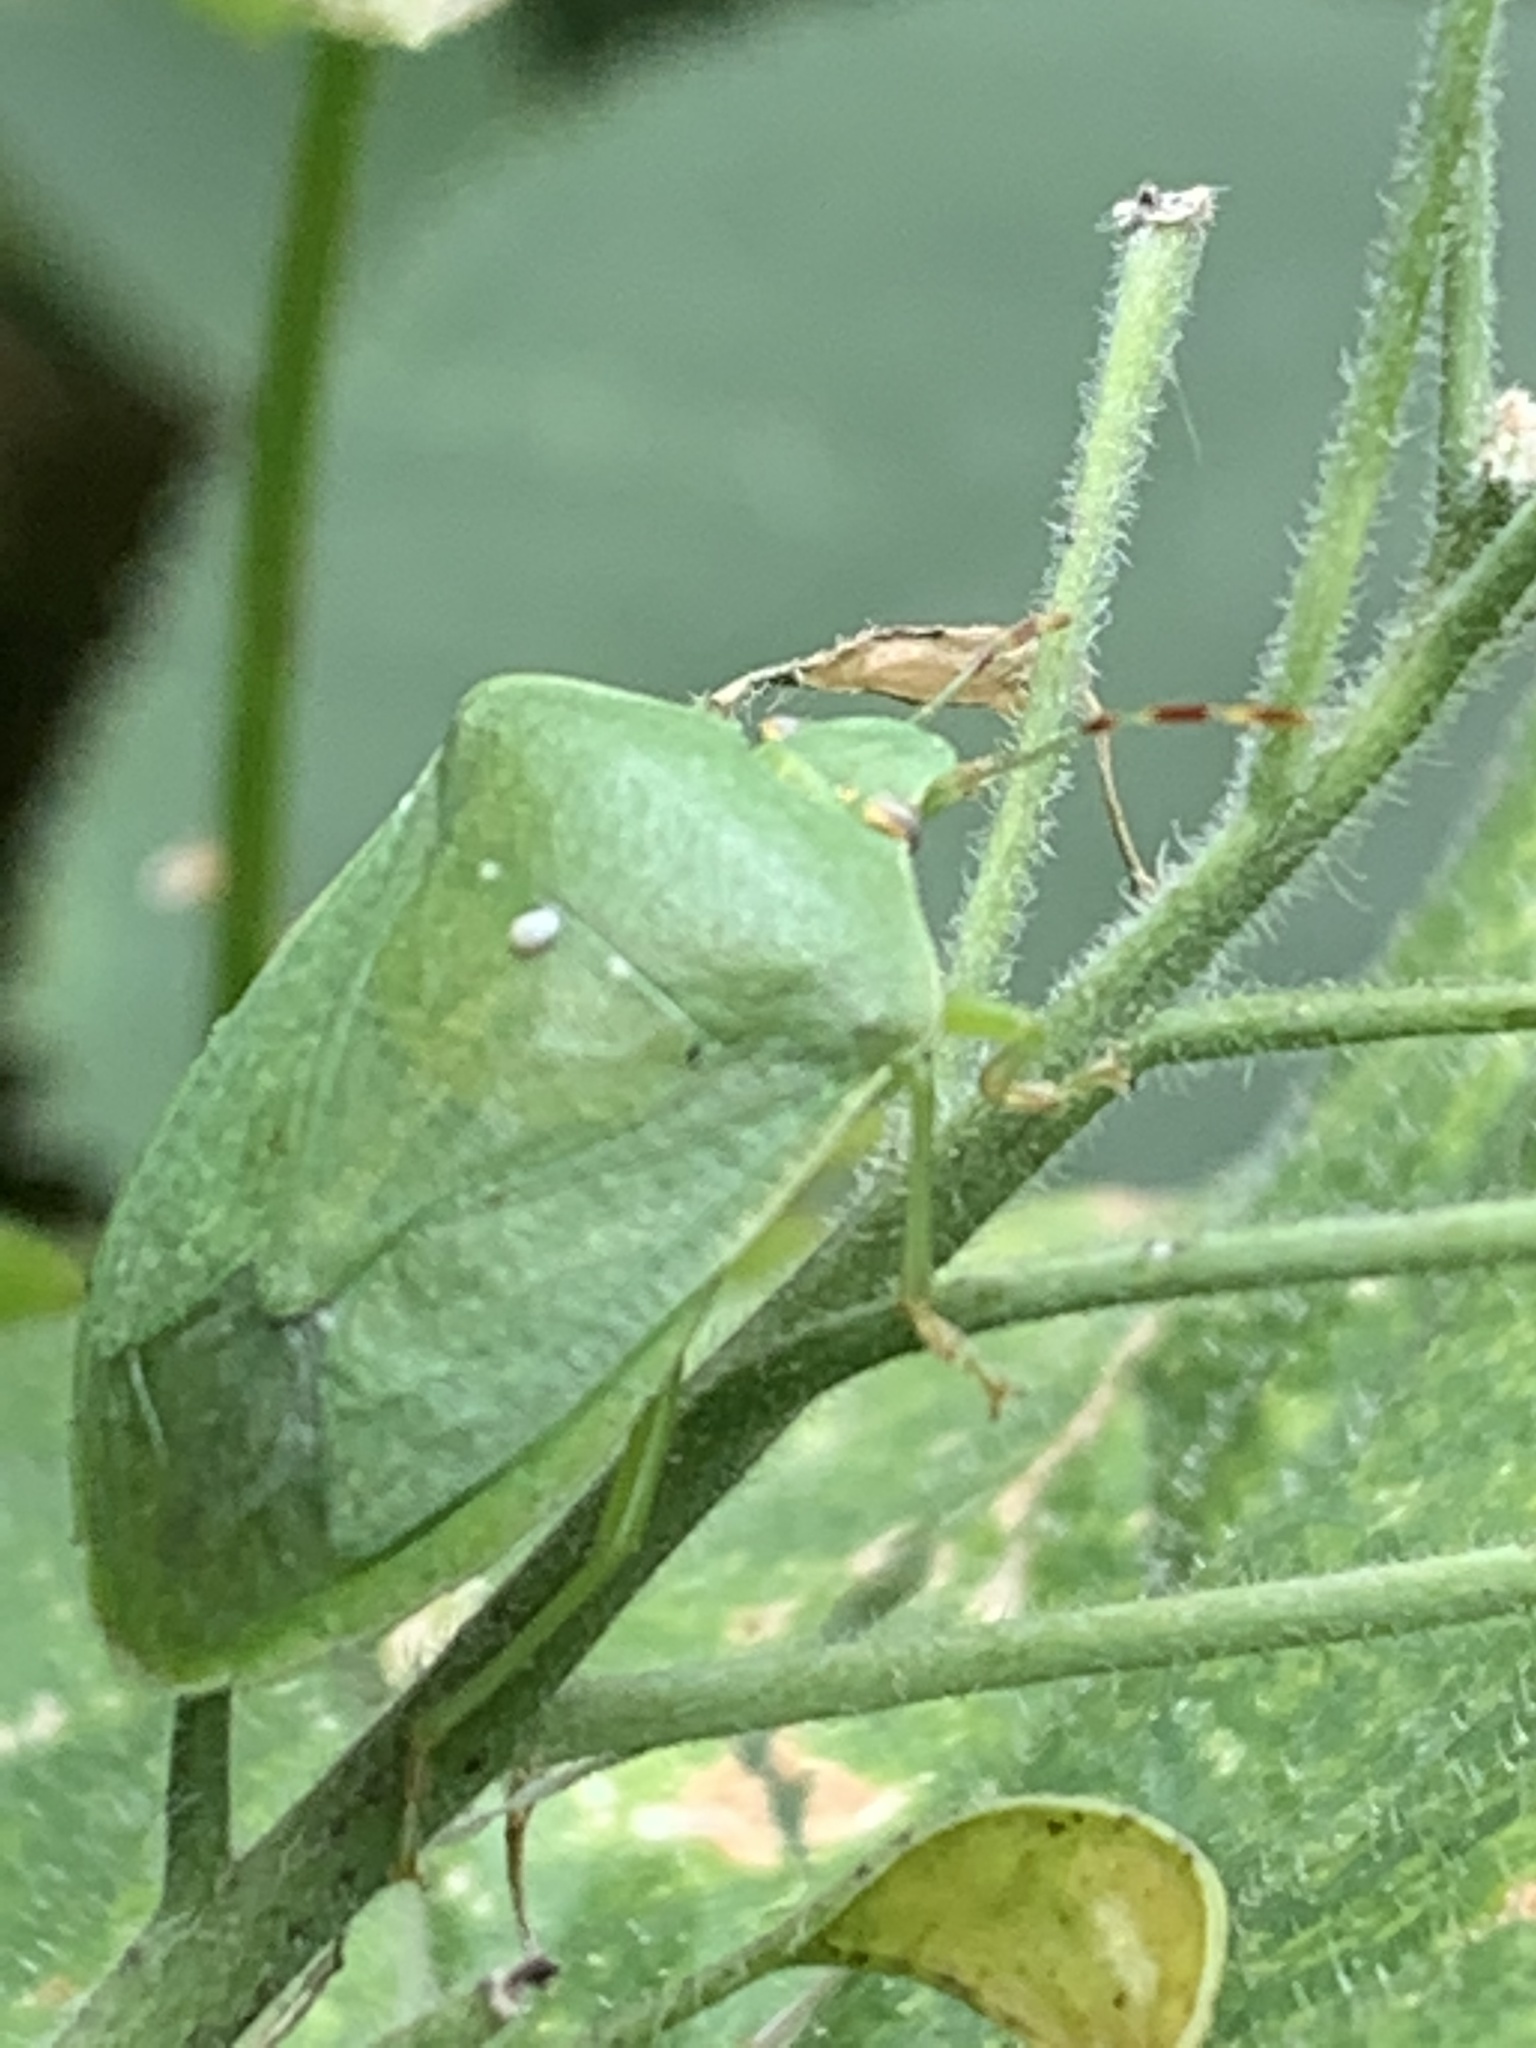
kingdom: Animalia
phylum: Arthropoda
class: Insecta
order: Hemiptera
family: Pentatomidae
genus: Nezara
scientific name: Nezara viridula
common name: Southern green stink bug
